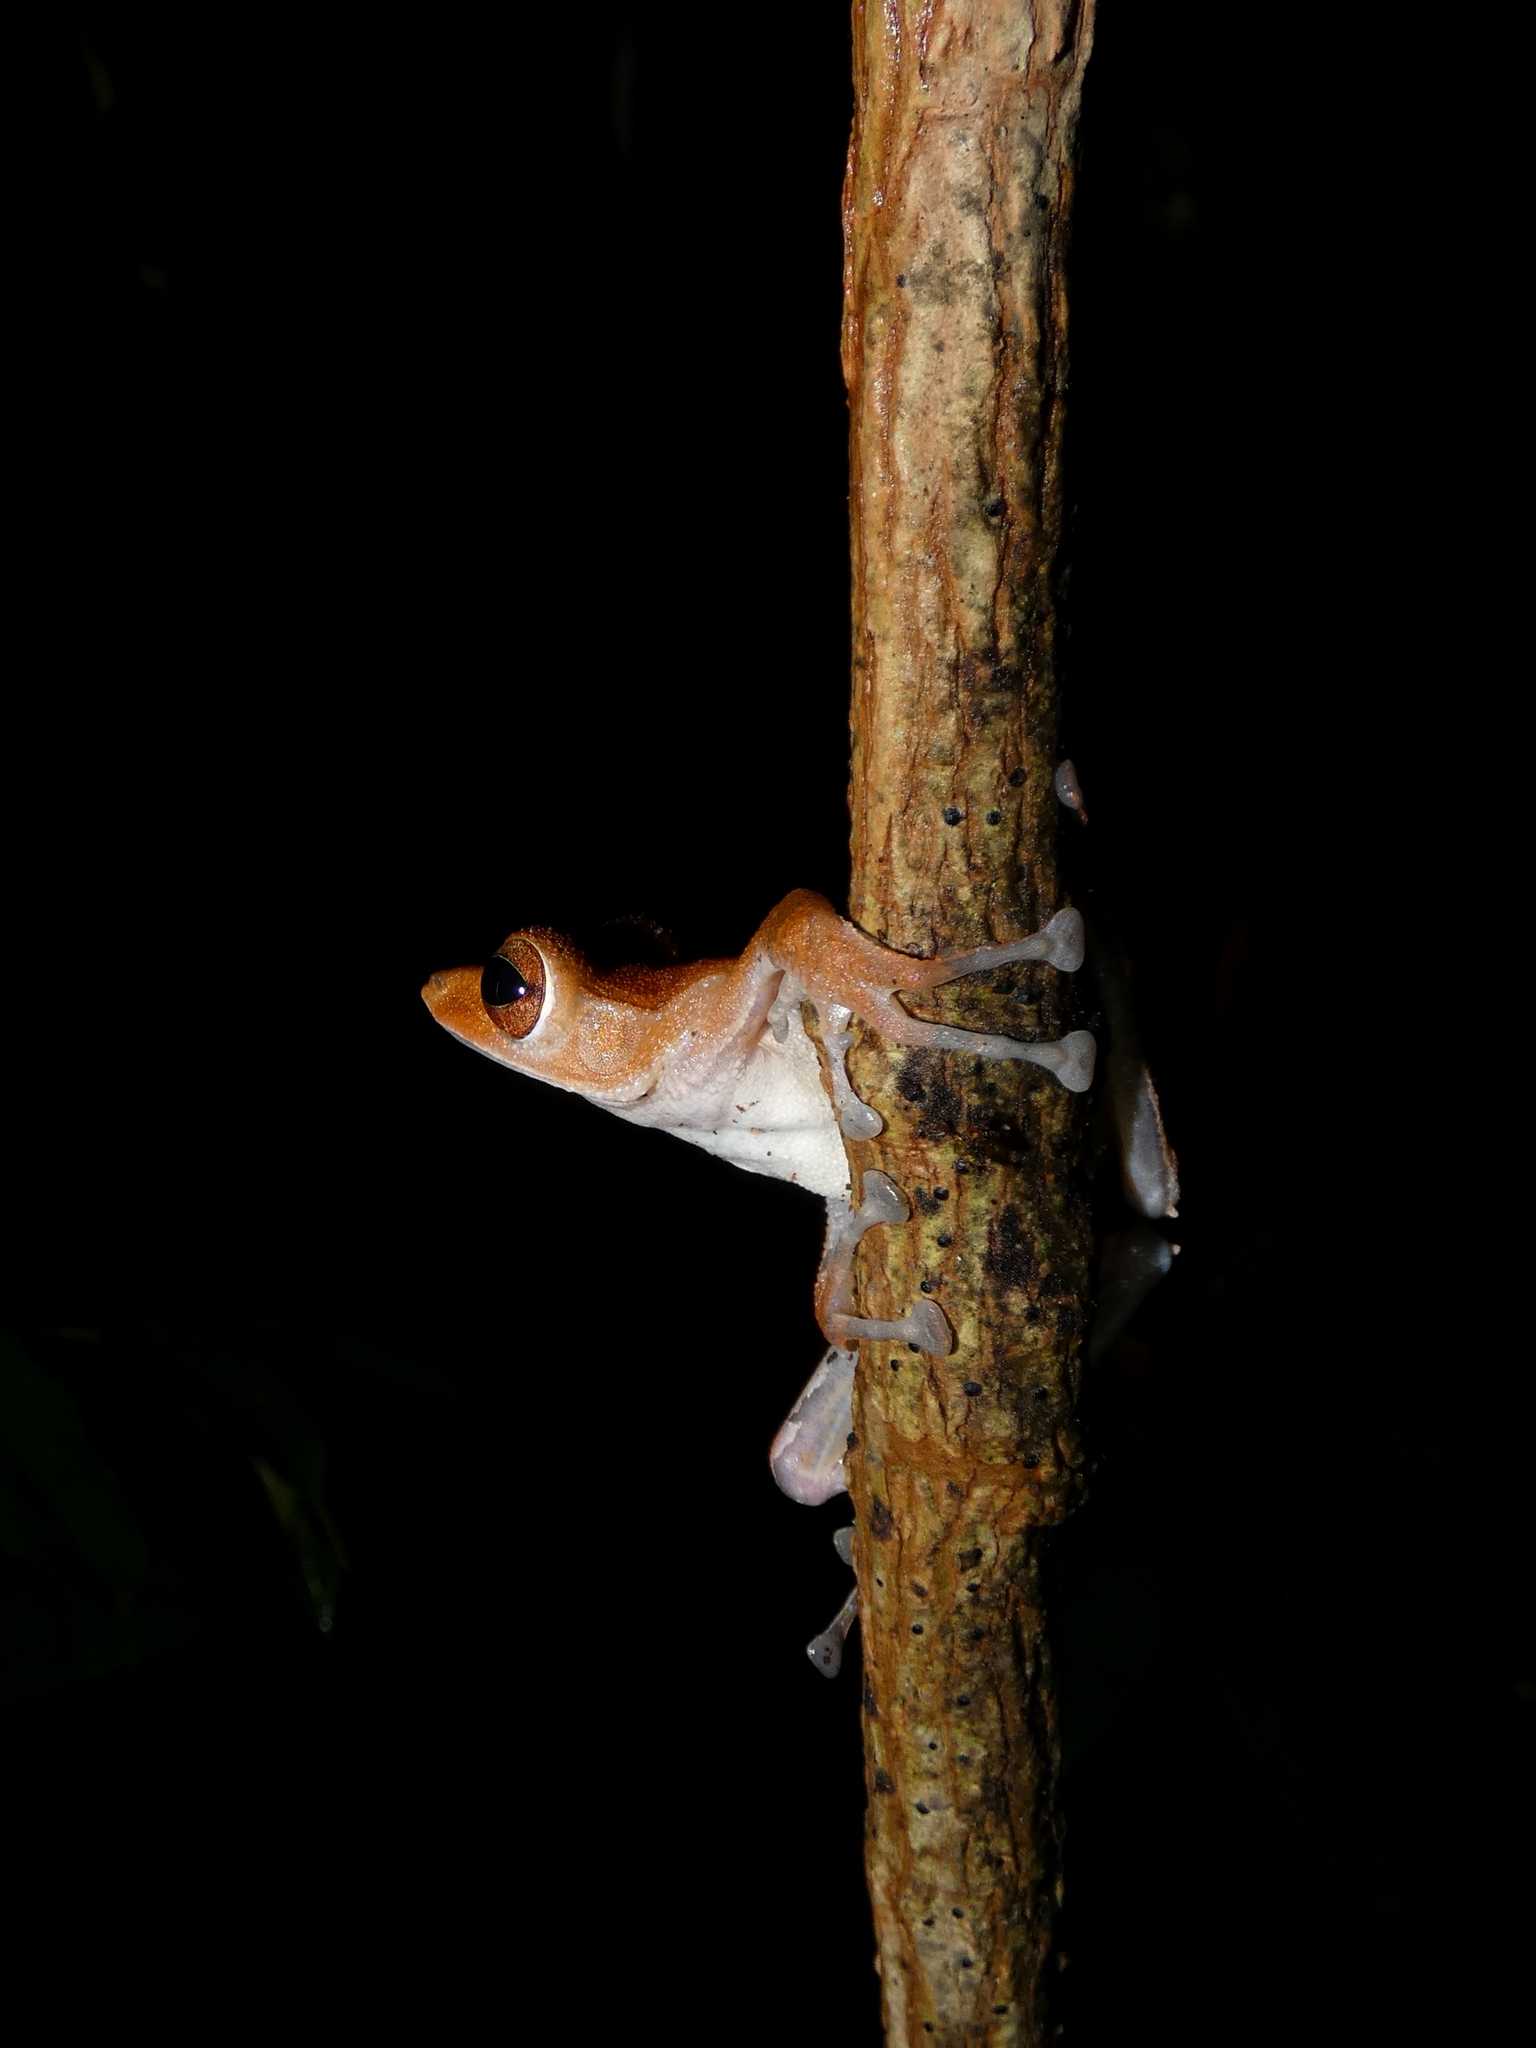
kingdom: Animalia
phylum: Chordata
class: Amphibia
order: Anura
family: Rhacophoridae
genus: Polypedates
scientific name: Polypedates colletti
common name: Collett’s tree frog
